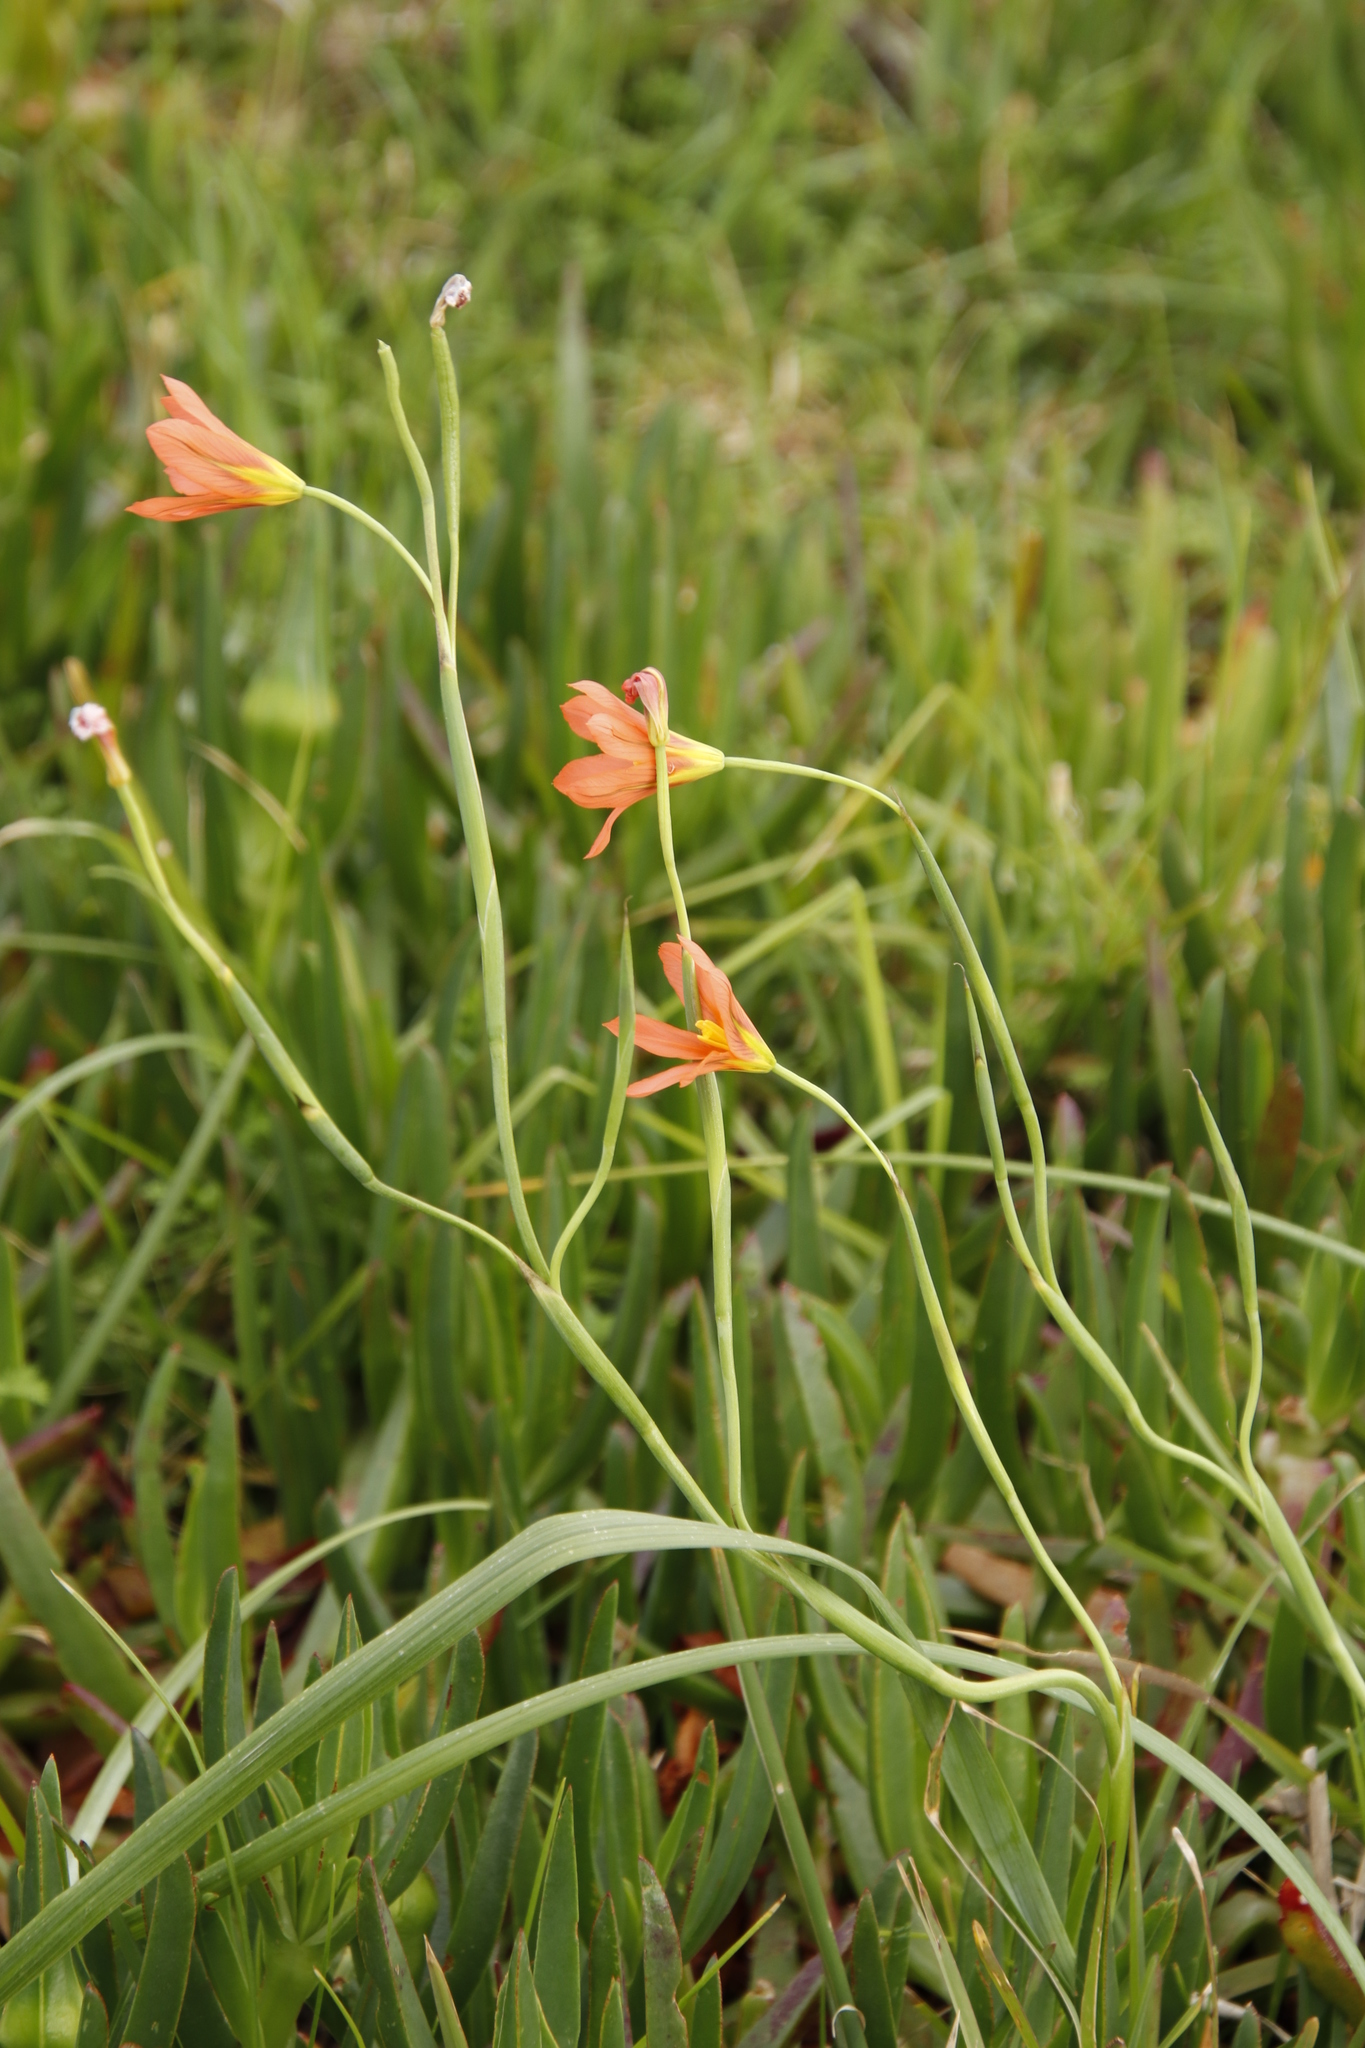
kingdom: Plantae
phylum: Tracheophyta
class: Liliopsida
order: Asparagales
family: Iridaceae
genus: Moraea
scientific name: Moraea flaccida
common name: One-leaf cape-tulip
